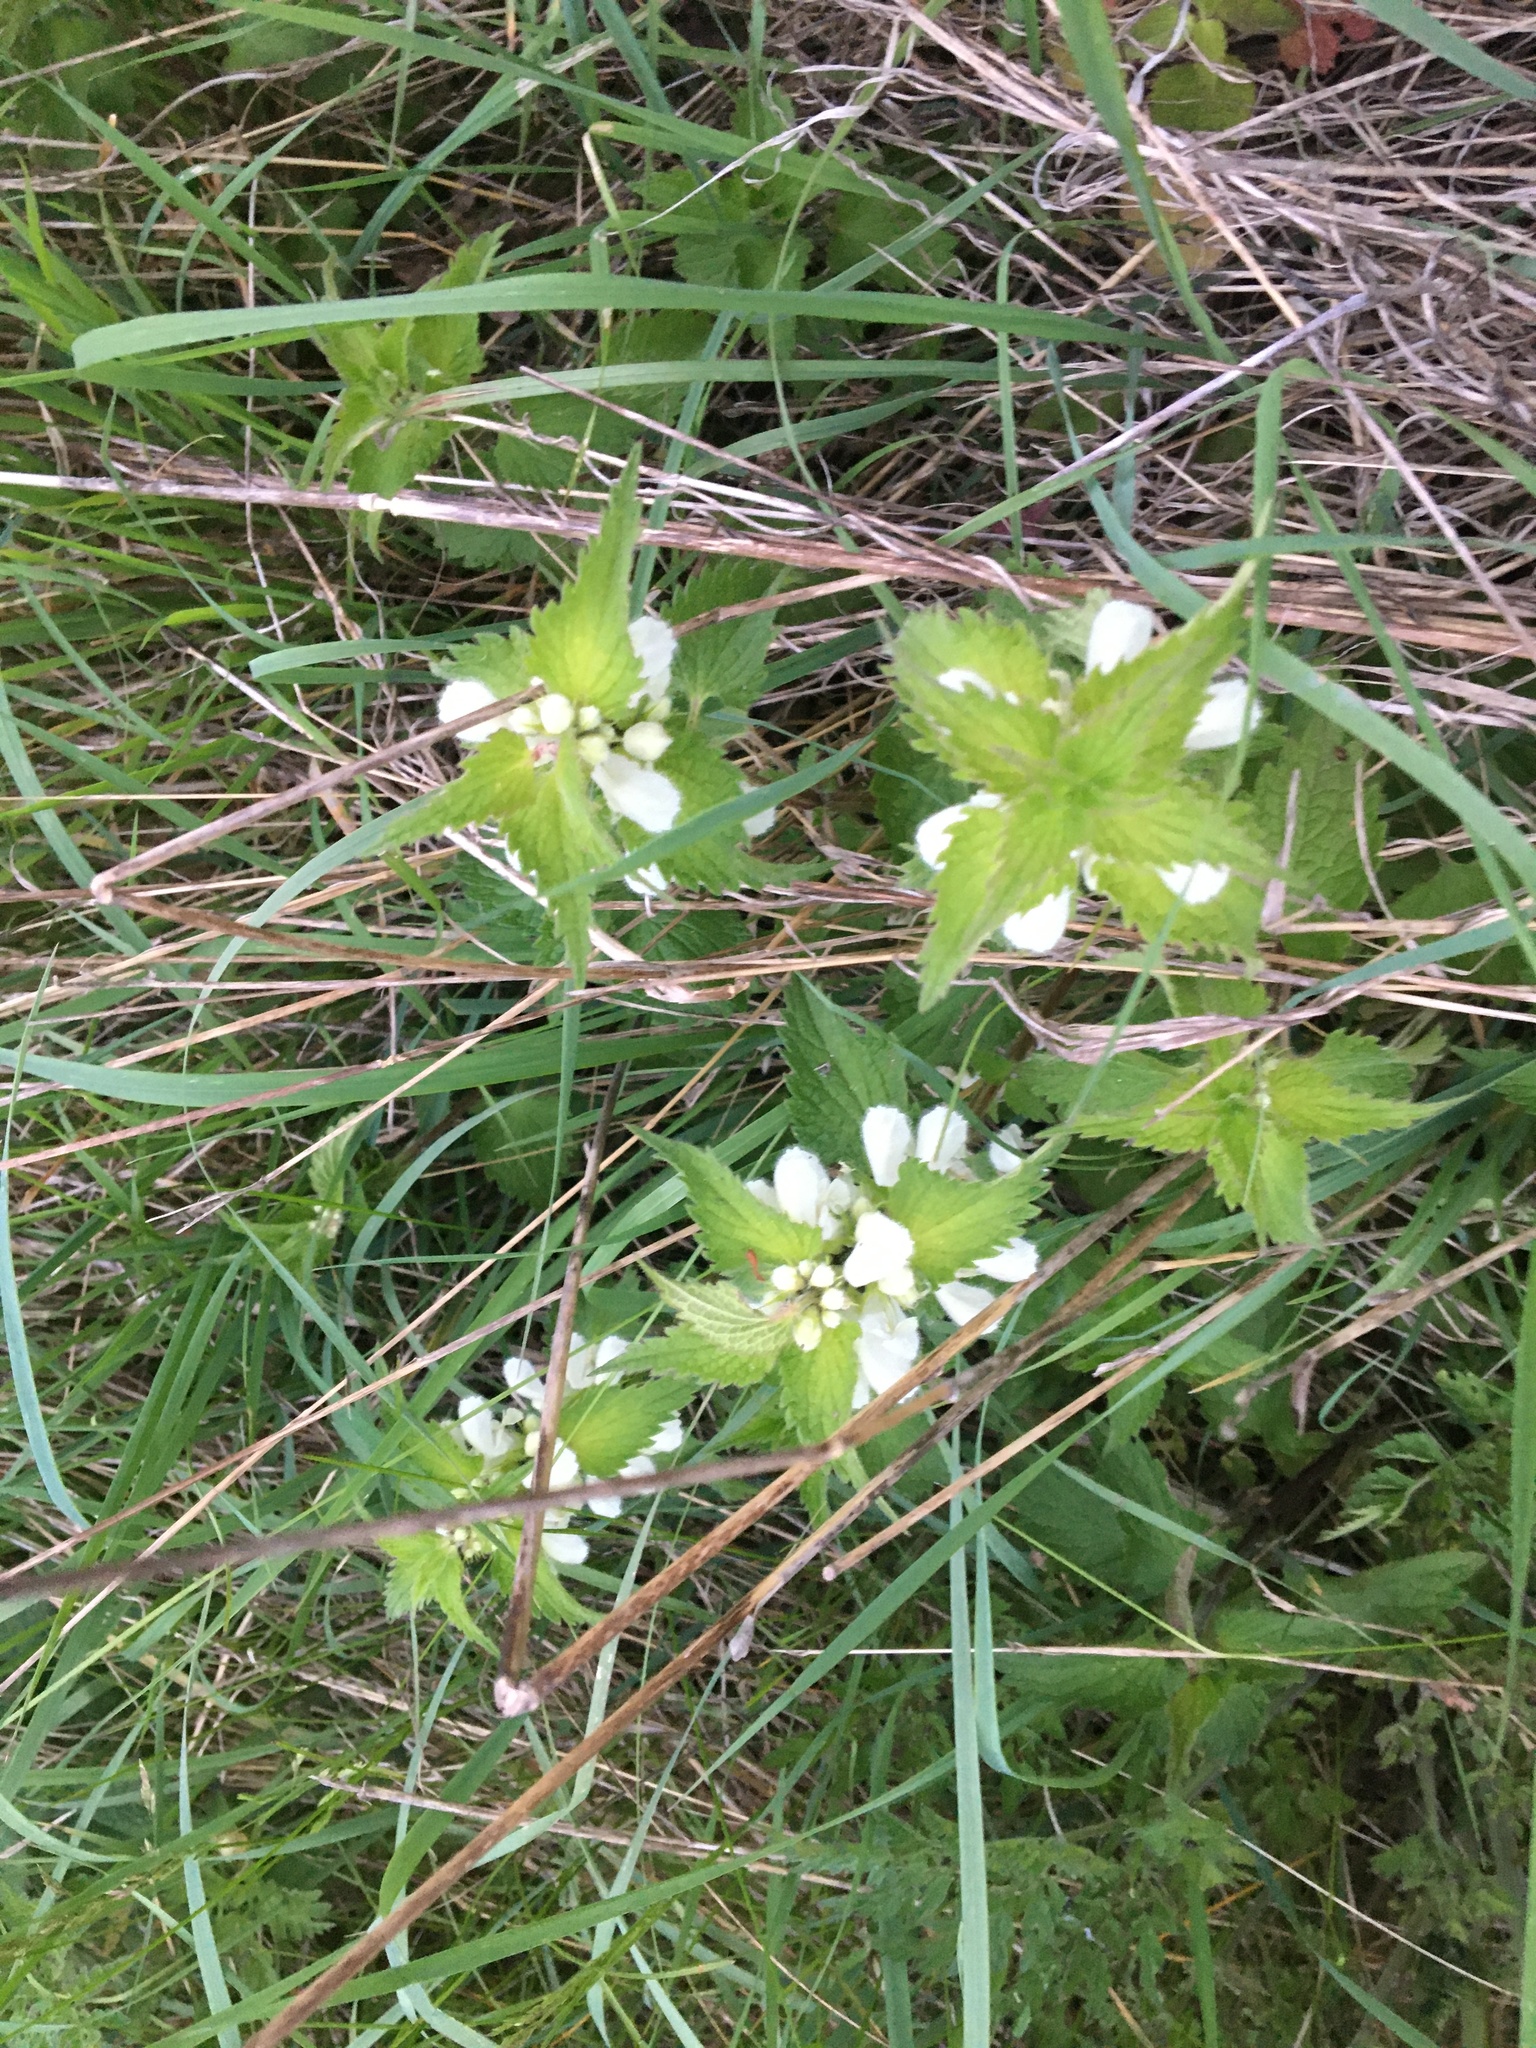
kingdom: Plantae
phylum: Tracheophyta
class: Magnoliopsida
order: Lamiales
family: Lamiaceae
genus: Lamium
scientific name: Lamium album
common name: White dead-nettle
